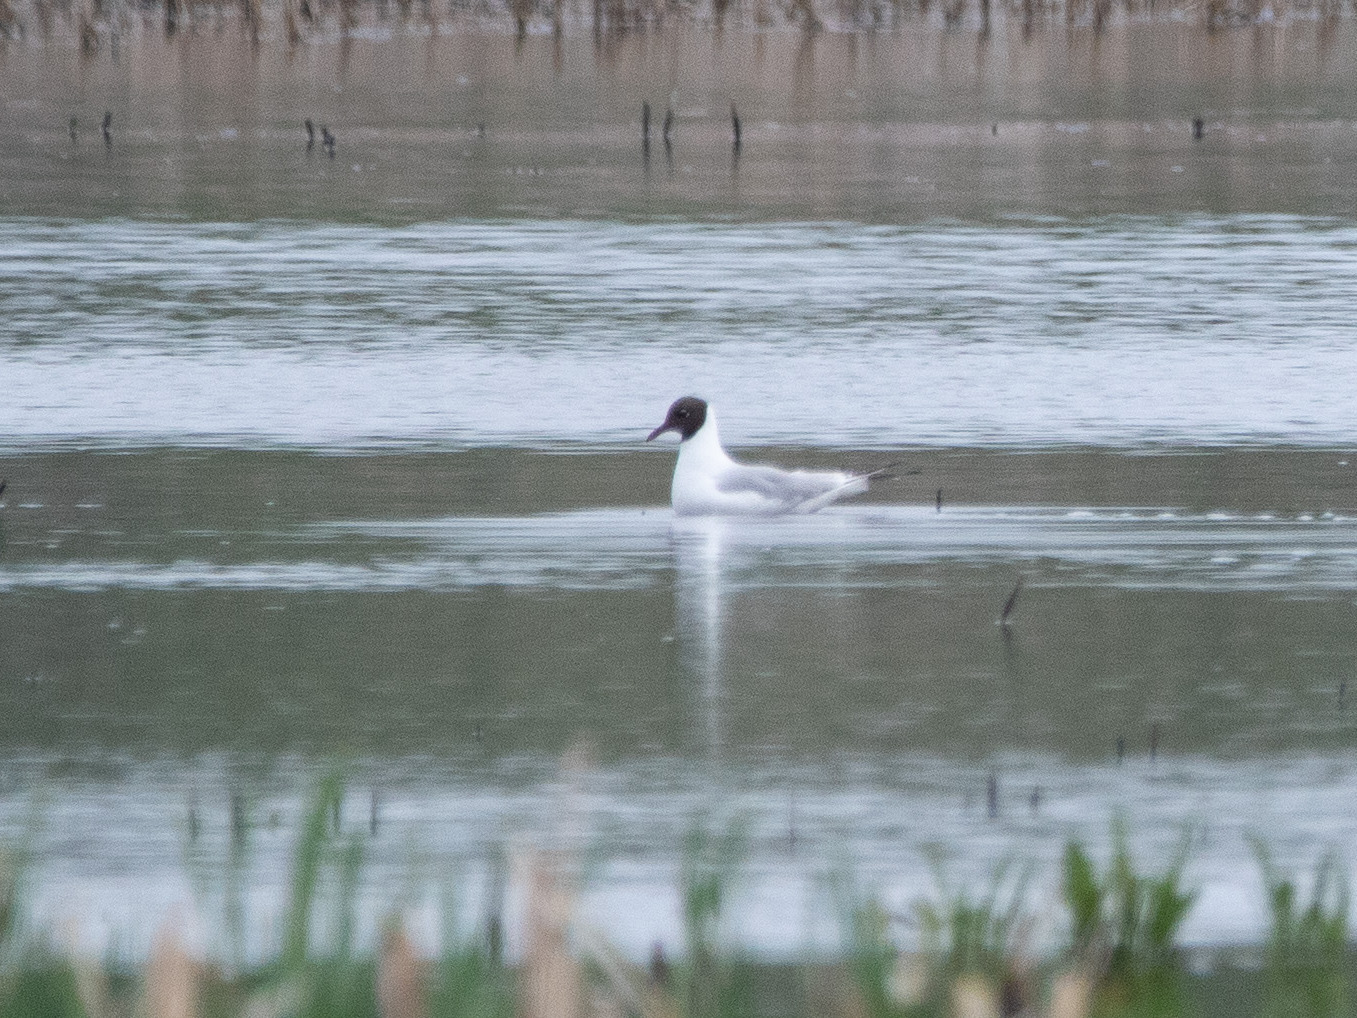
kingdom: Animalia
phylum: Chordata
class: Aves
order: Charadriiformes
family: Laridae
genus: Chroicocephalus
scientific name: Chroicocephalus ridibundus
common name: Black-headed gull
